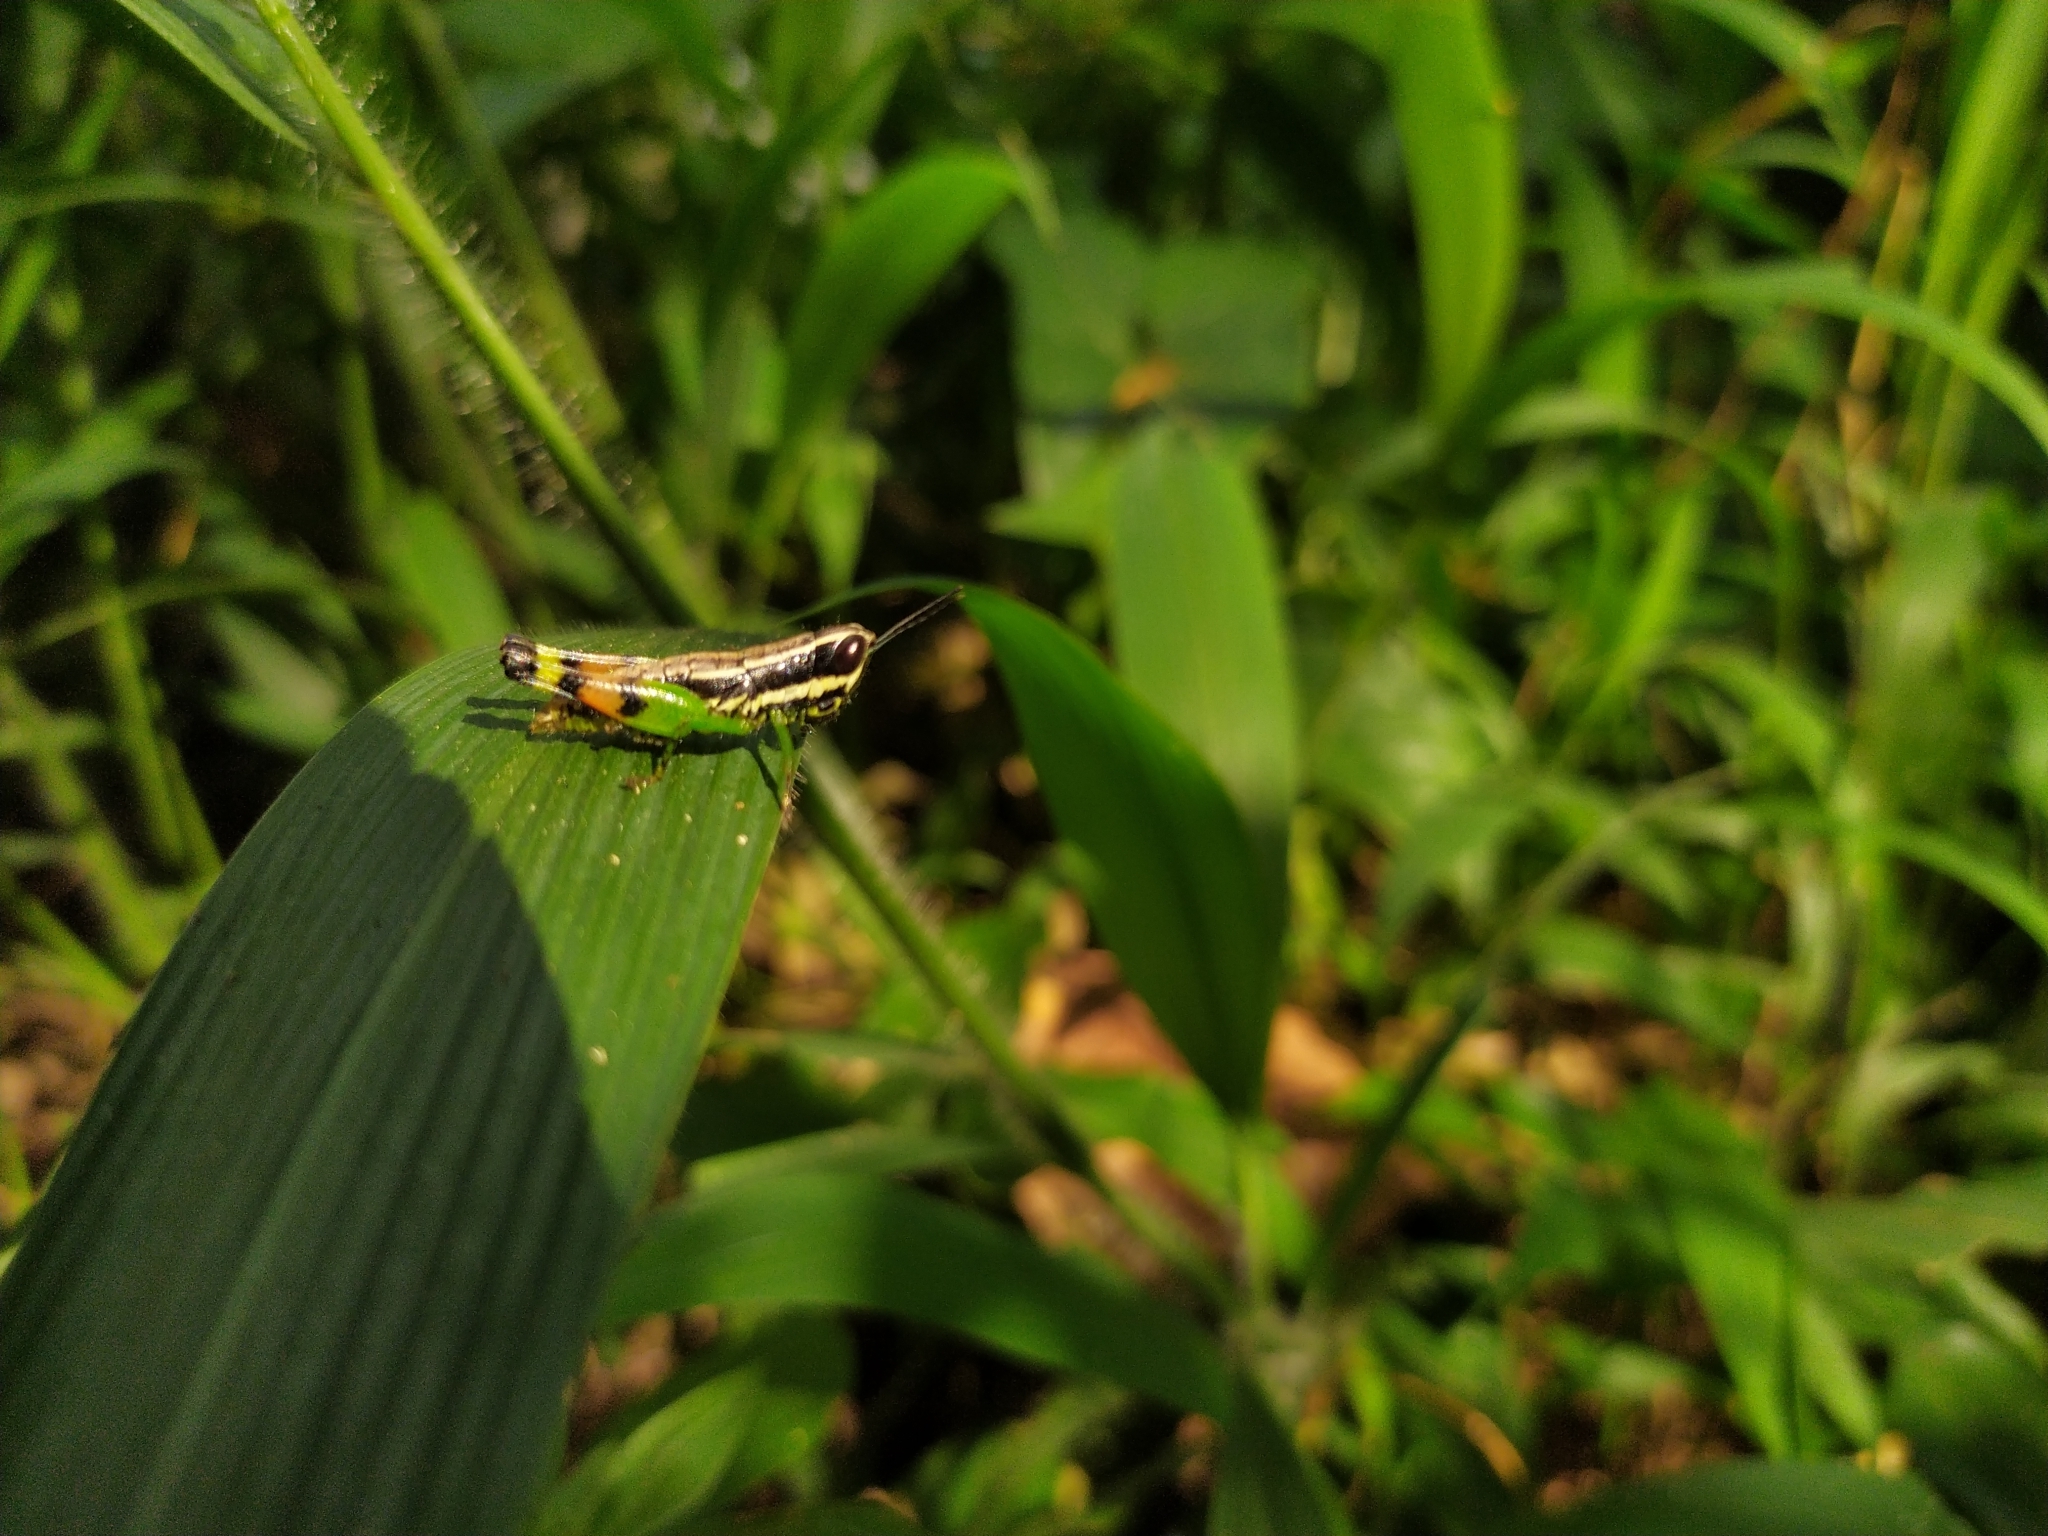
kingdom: Animalia
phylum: Arthropoda
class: Insecta
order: Orthoptera
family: Acrididae
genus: Chitaura
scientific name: Chitaura indica
